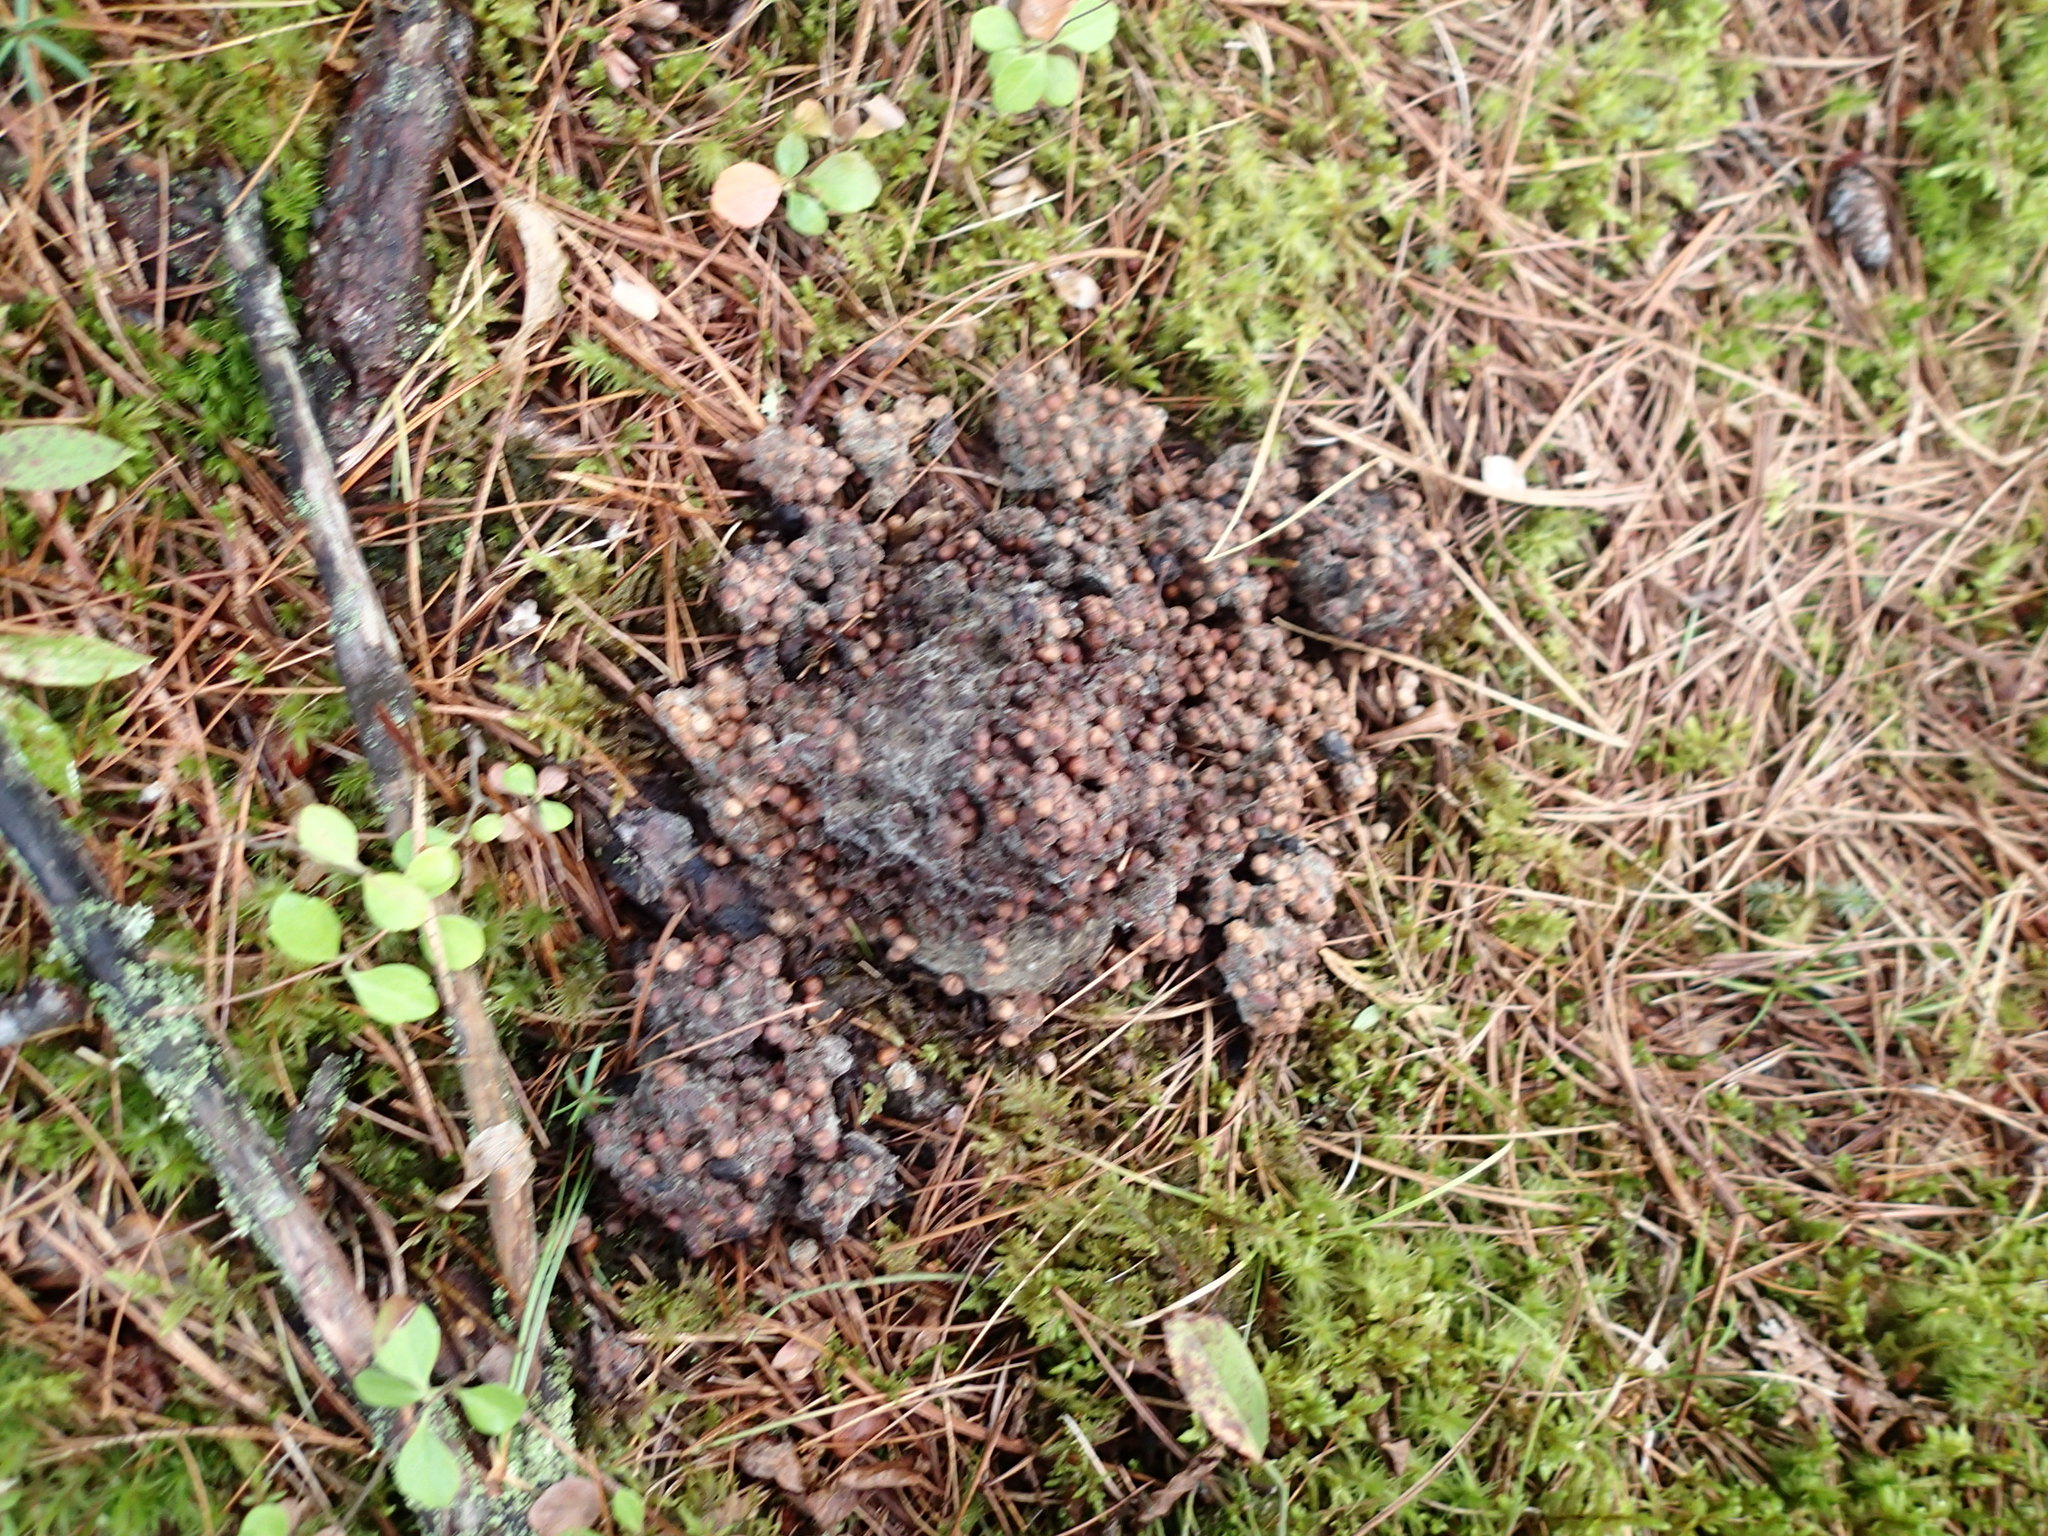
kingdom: Animalia
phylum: Chordata
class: Mammalia
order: Carnivora
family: Ursidae
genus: Ursus
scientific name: Ursus americanus
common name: American black bear
